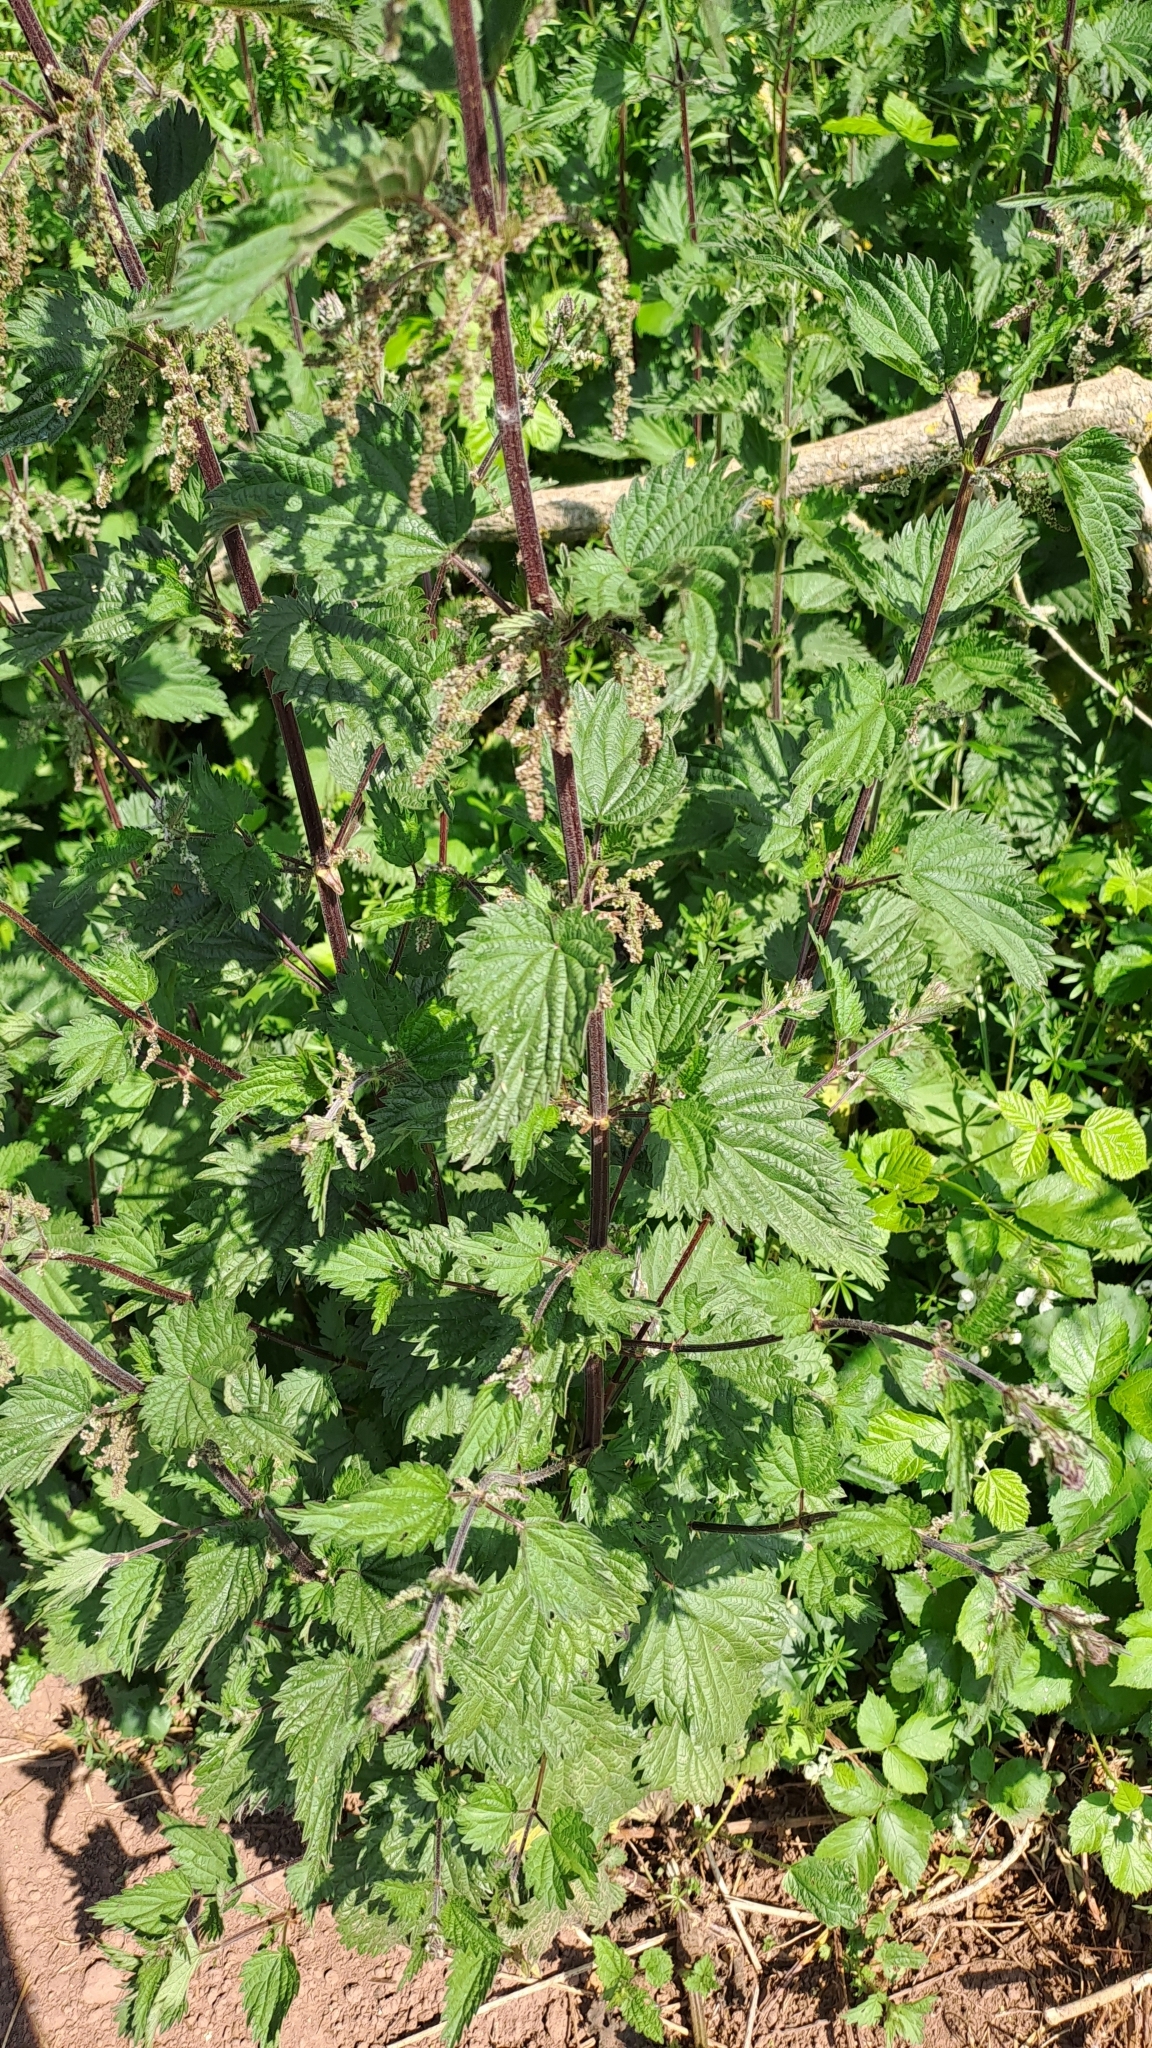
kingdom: Plantae
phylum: Tracheophyta
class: Magnoliopsida
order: Rosales
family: Urticaceae
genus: Urtica
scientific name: Urtica dioica
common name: Common nettle
